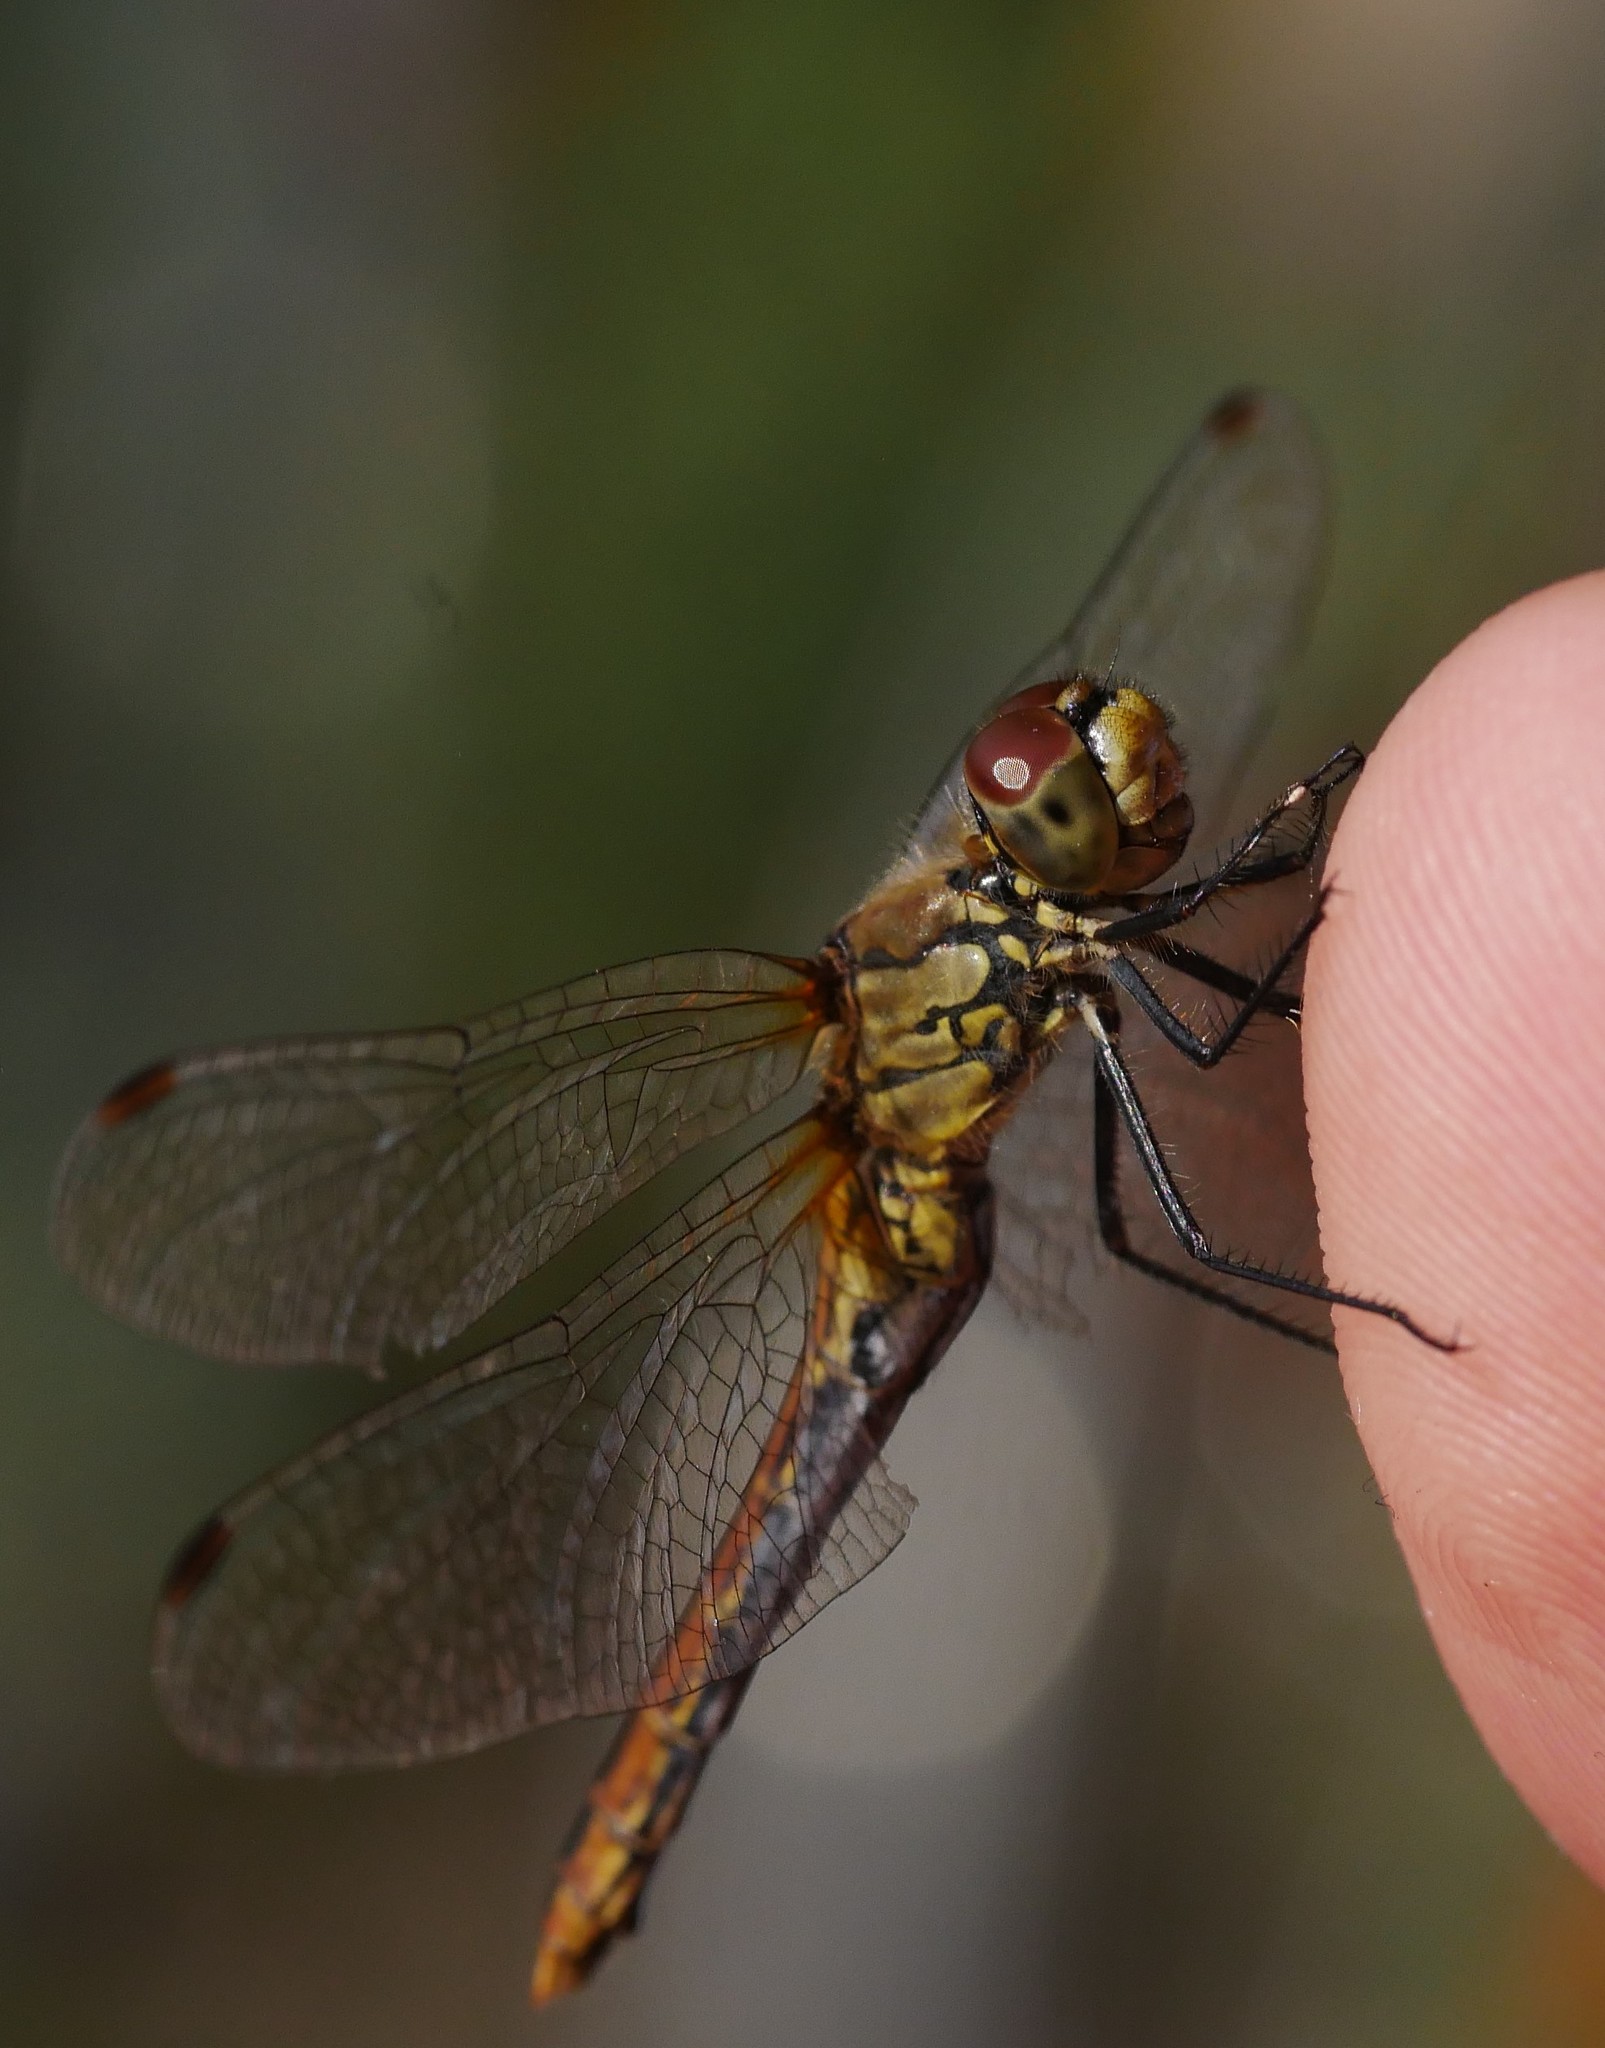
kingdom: Animalia
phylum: Arthropoda
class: Insecta
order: Odonata
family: Libellulidae
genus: Sympetrum
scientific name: Sympetrum sanguineum
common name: Ruddy darter
